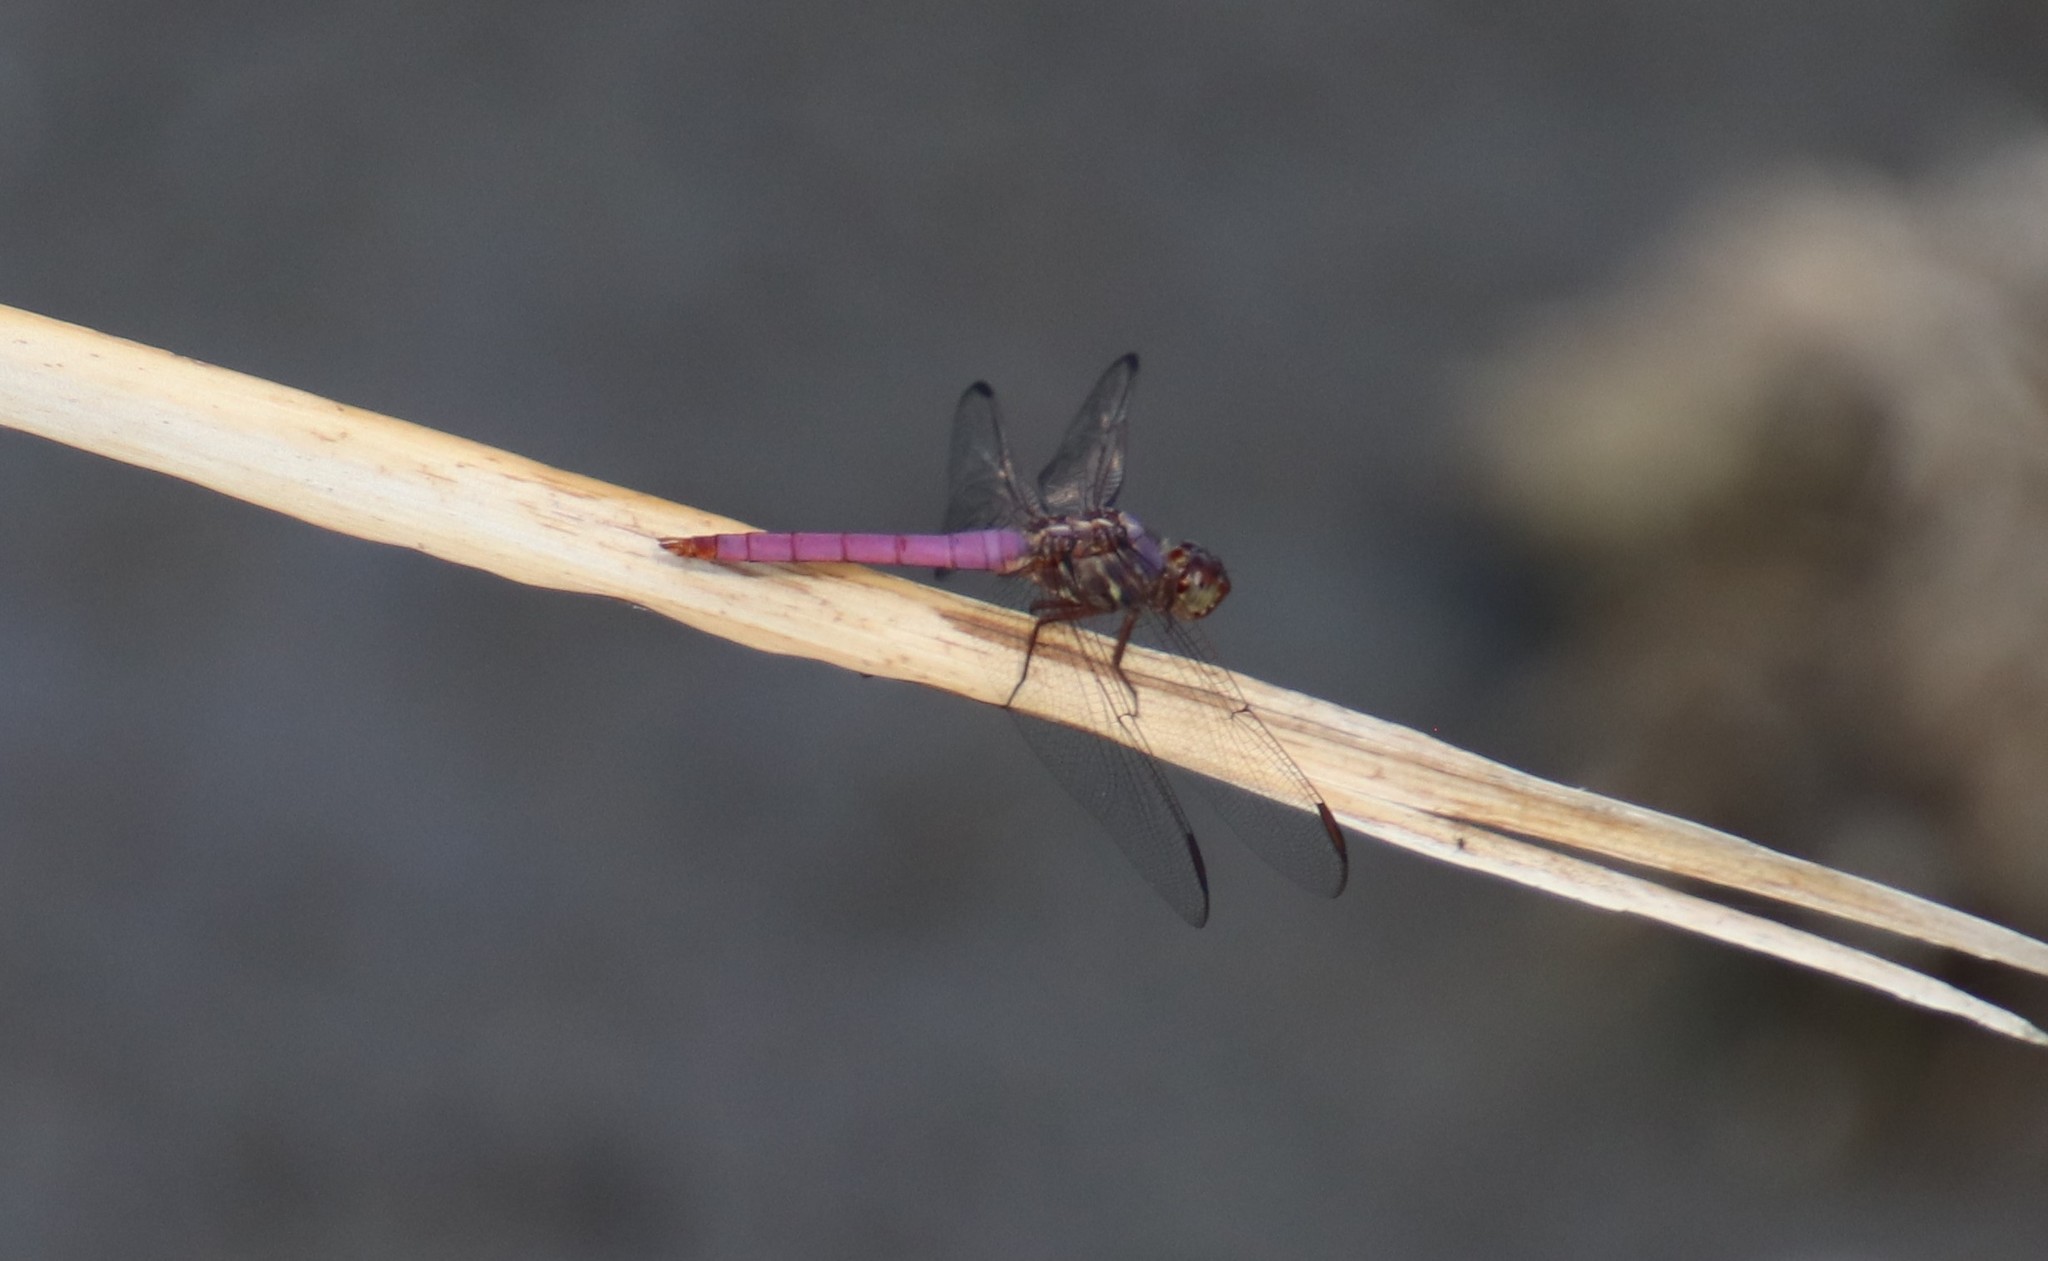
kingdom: Animalia
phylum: Arthropoda
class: Insecta
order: Odonata
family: Libellulidae
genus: Orthemis
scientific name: Orthemis ferruginea
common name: Roseate skimmer
